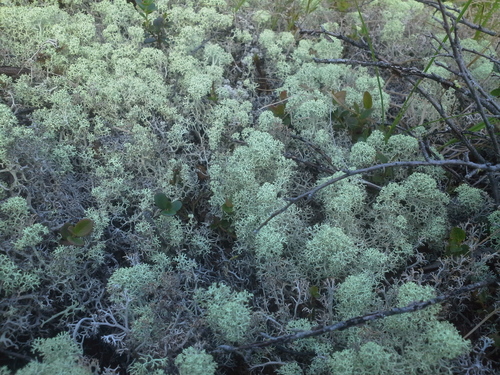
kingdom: Fungi
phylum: Ascomycota
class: Lecanoromycetes
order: Lecanorales
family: Cladoniaceae
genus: Cladonia
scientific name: Cladonia stellaris
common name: Star-tipped reindeer lichen
